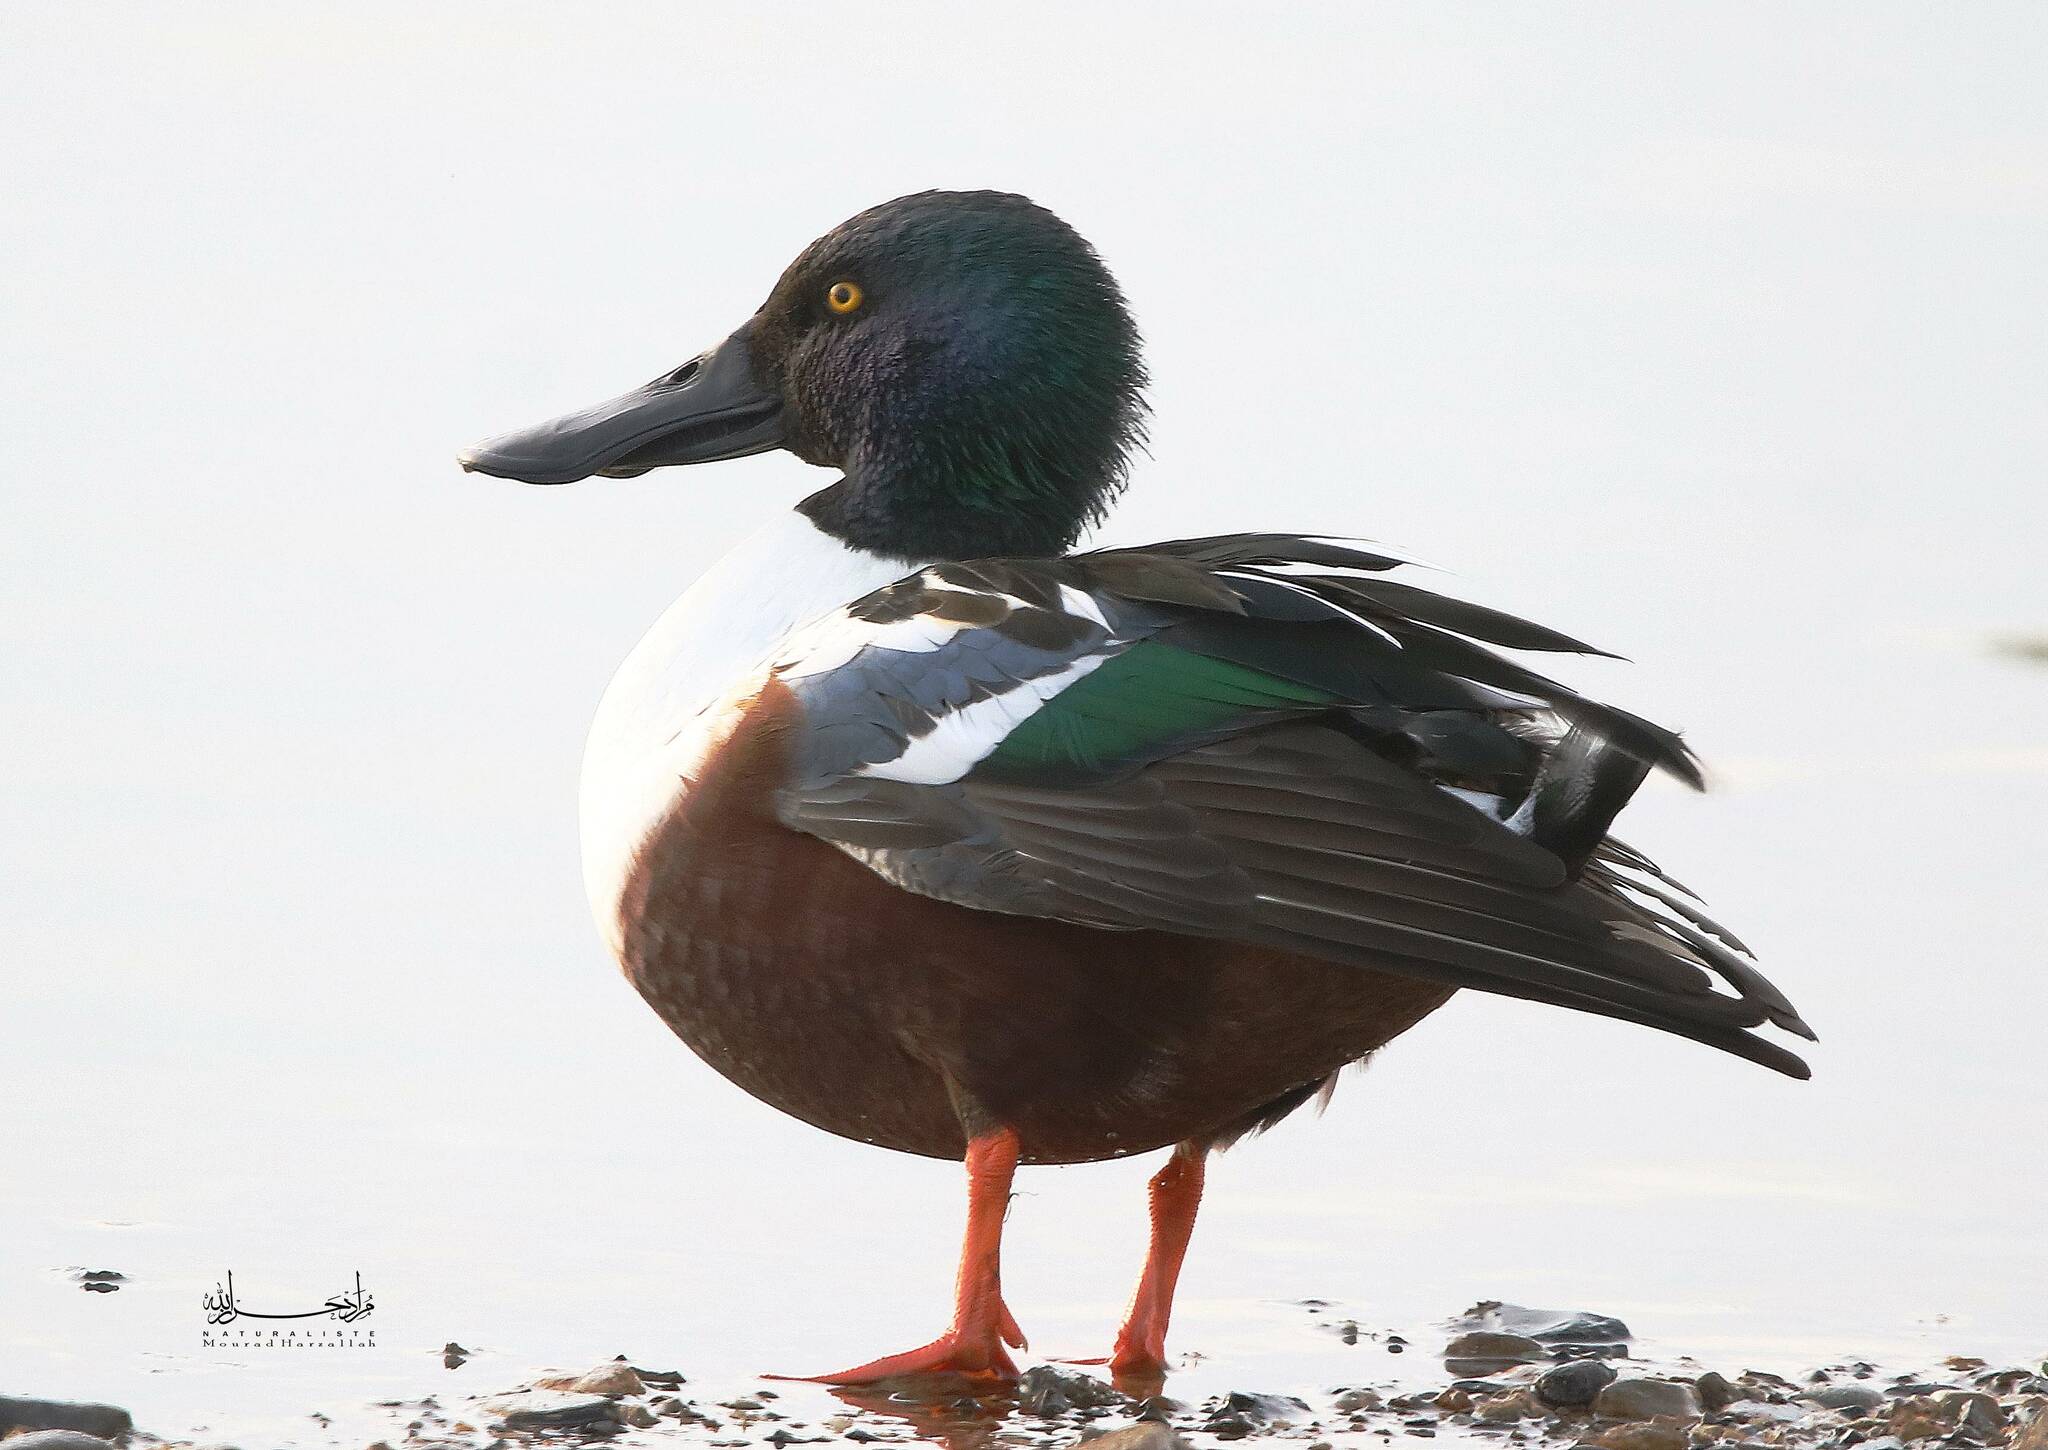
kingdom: Animalia
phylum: Chordata
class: Aves
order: Anseriformes
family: Anatidae
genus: Spatula
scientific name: Spatula clypeata
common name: Northern shoveler
